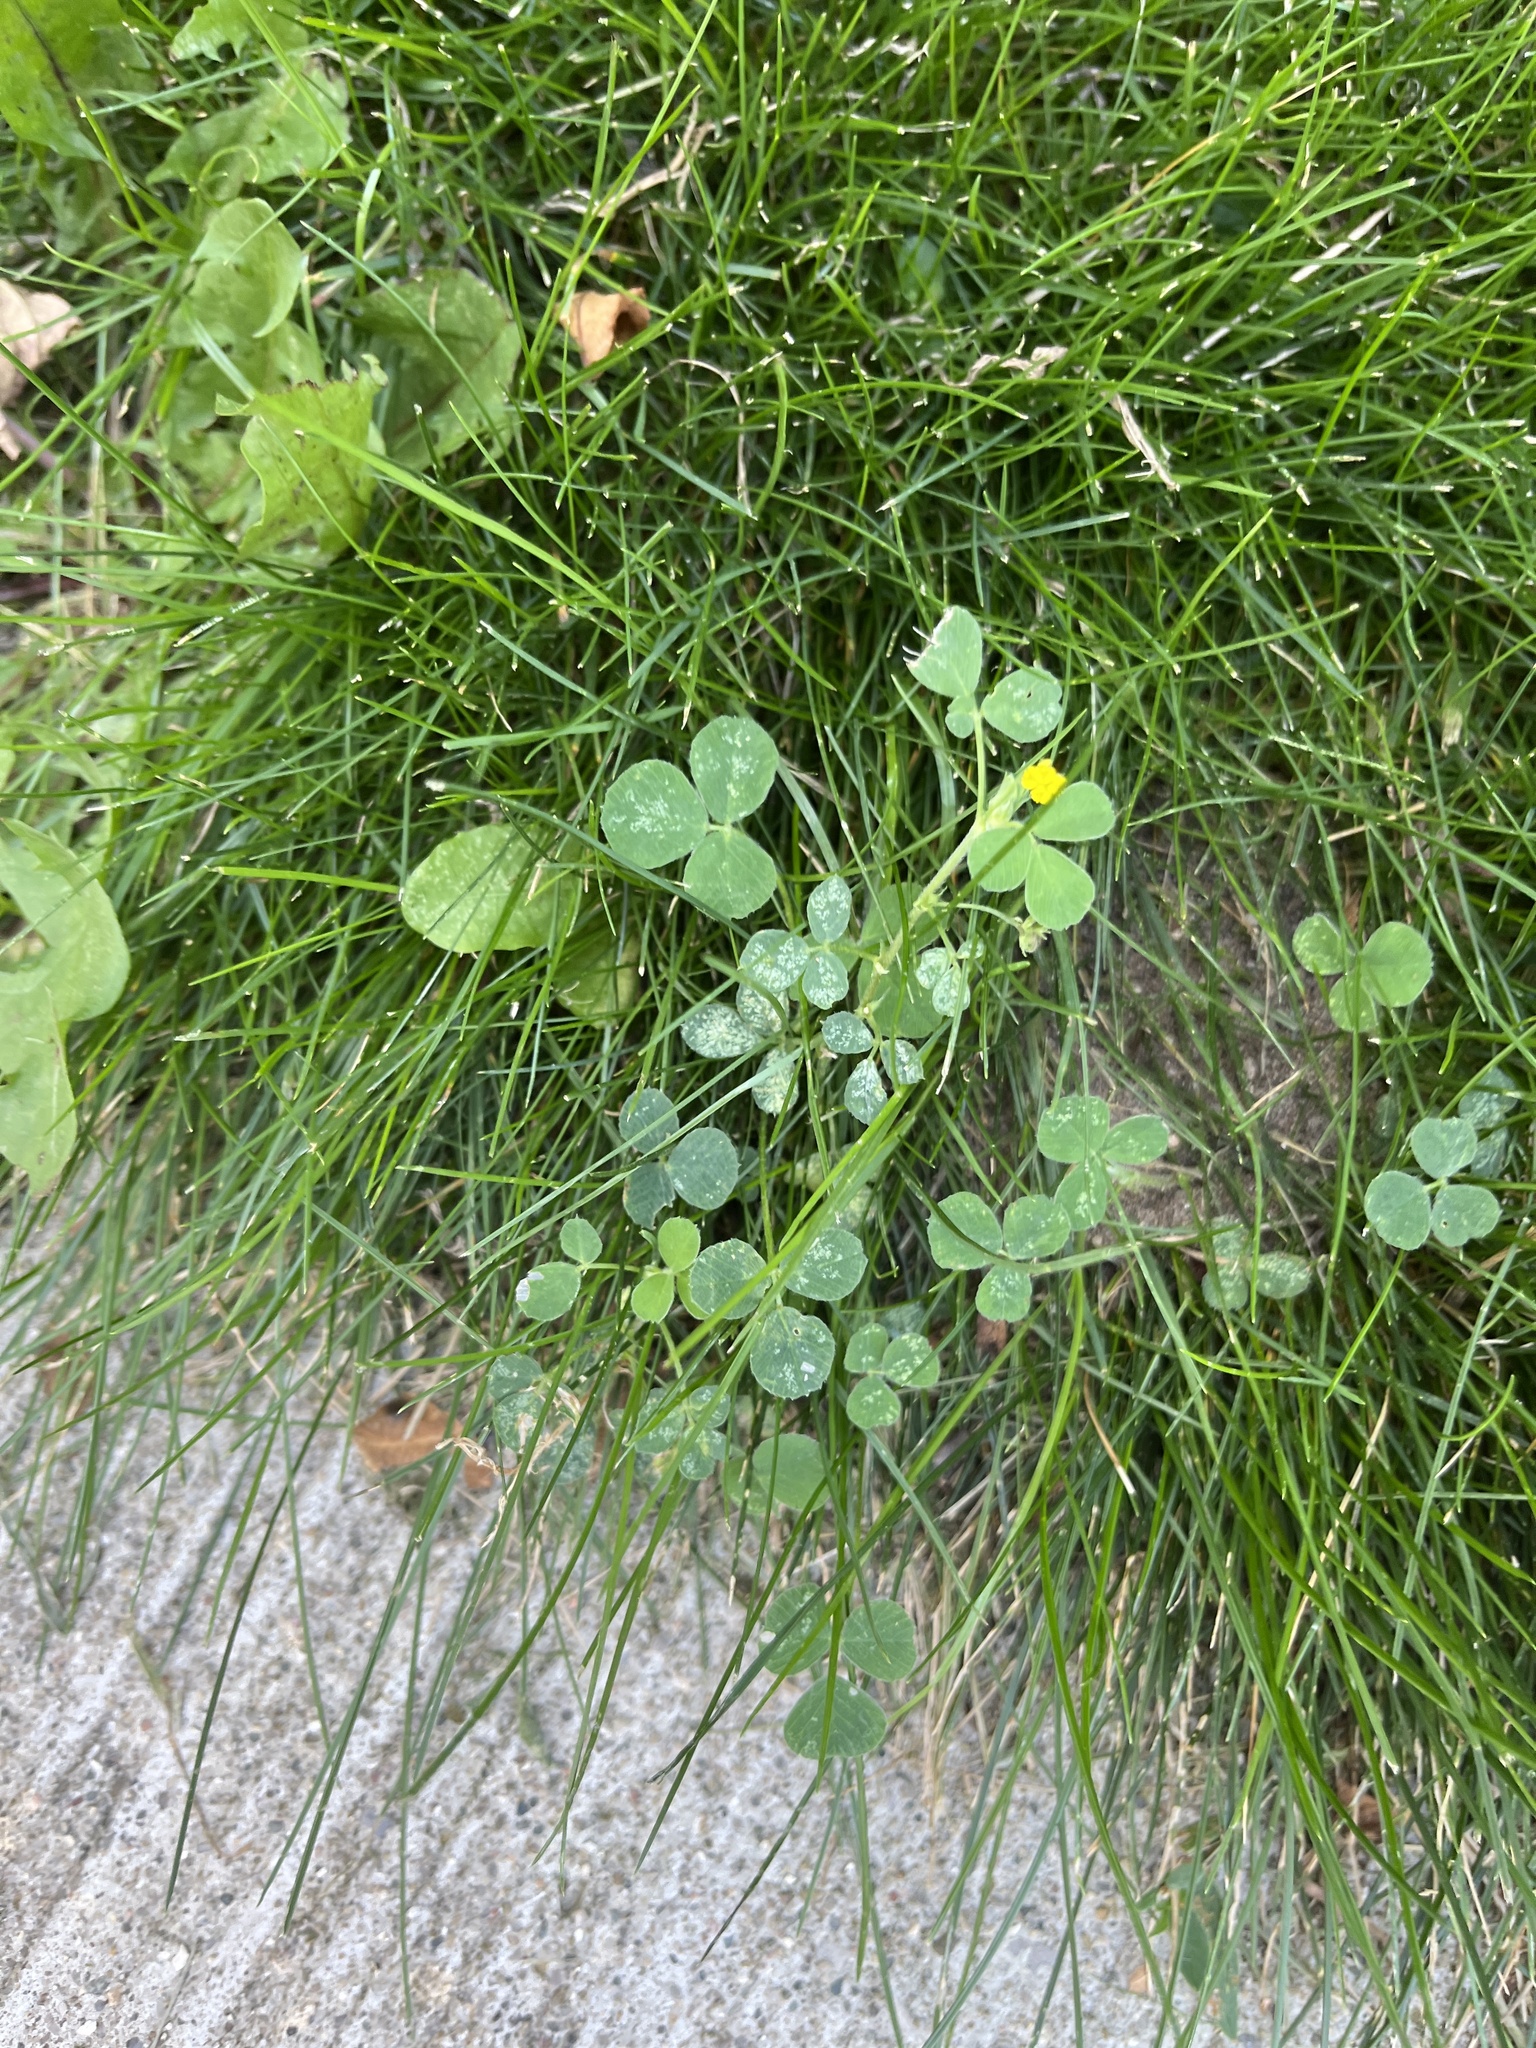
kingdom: Plantae
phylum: Tracheophyta
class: Magnoliopsida
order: Fabales
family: Fabaceae
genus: Medicago
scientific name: Medicago lupulina
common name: Black medick
